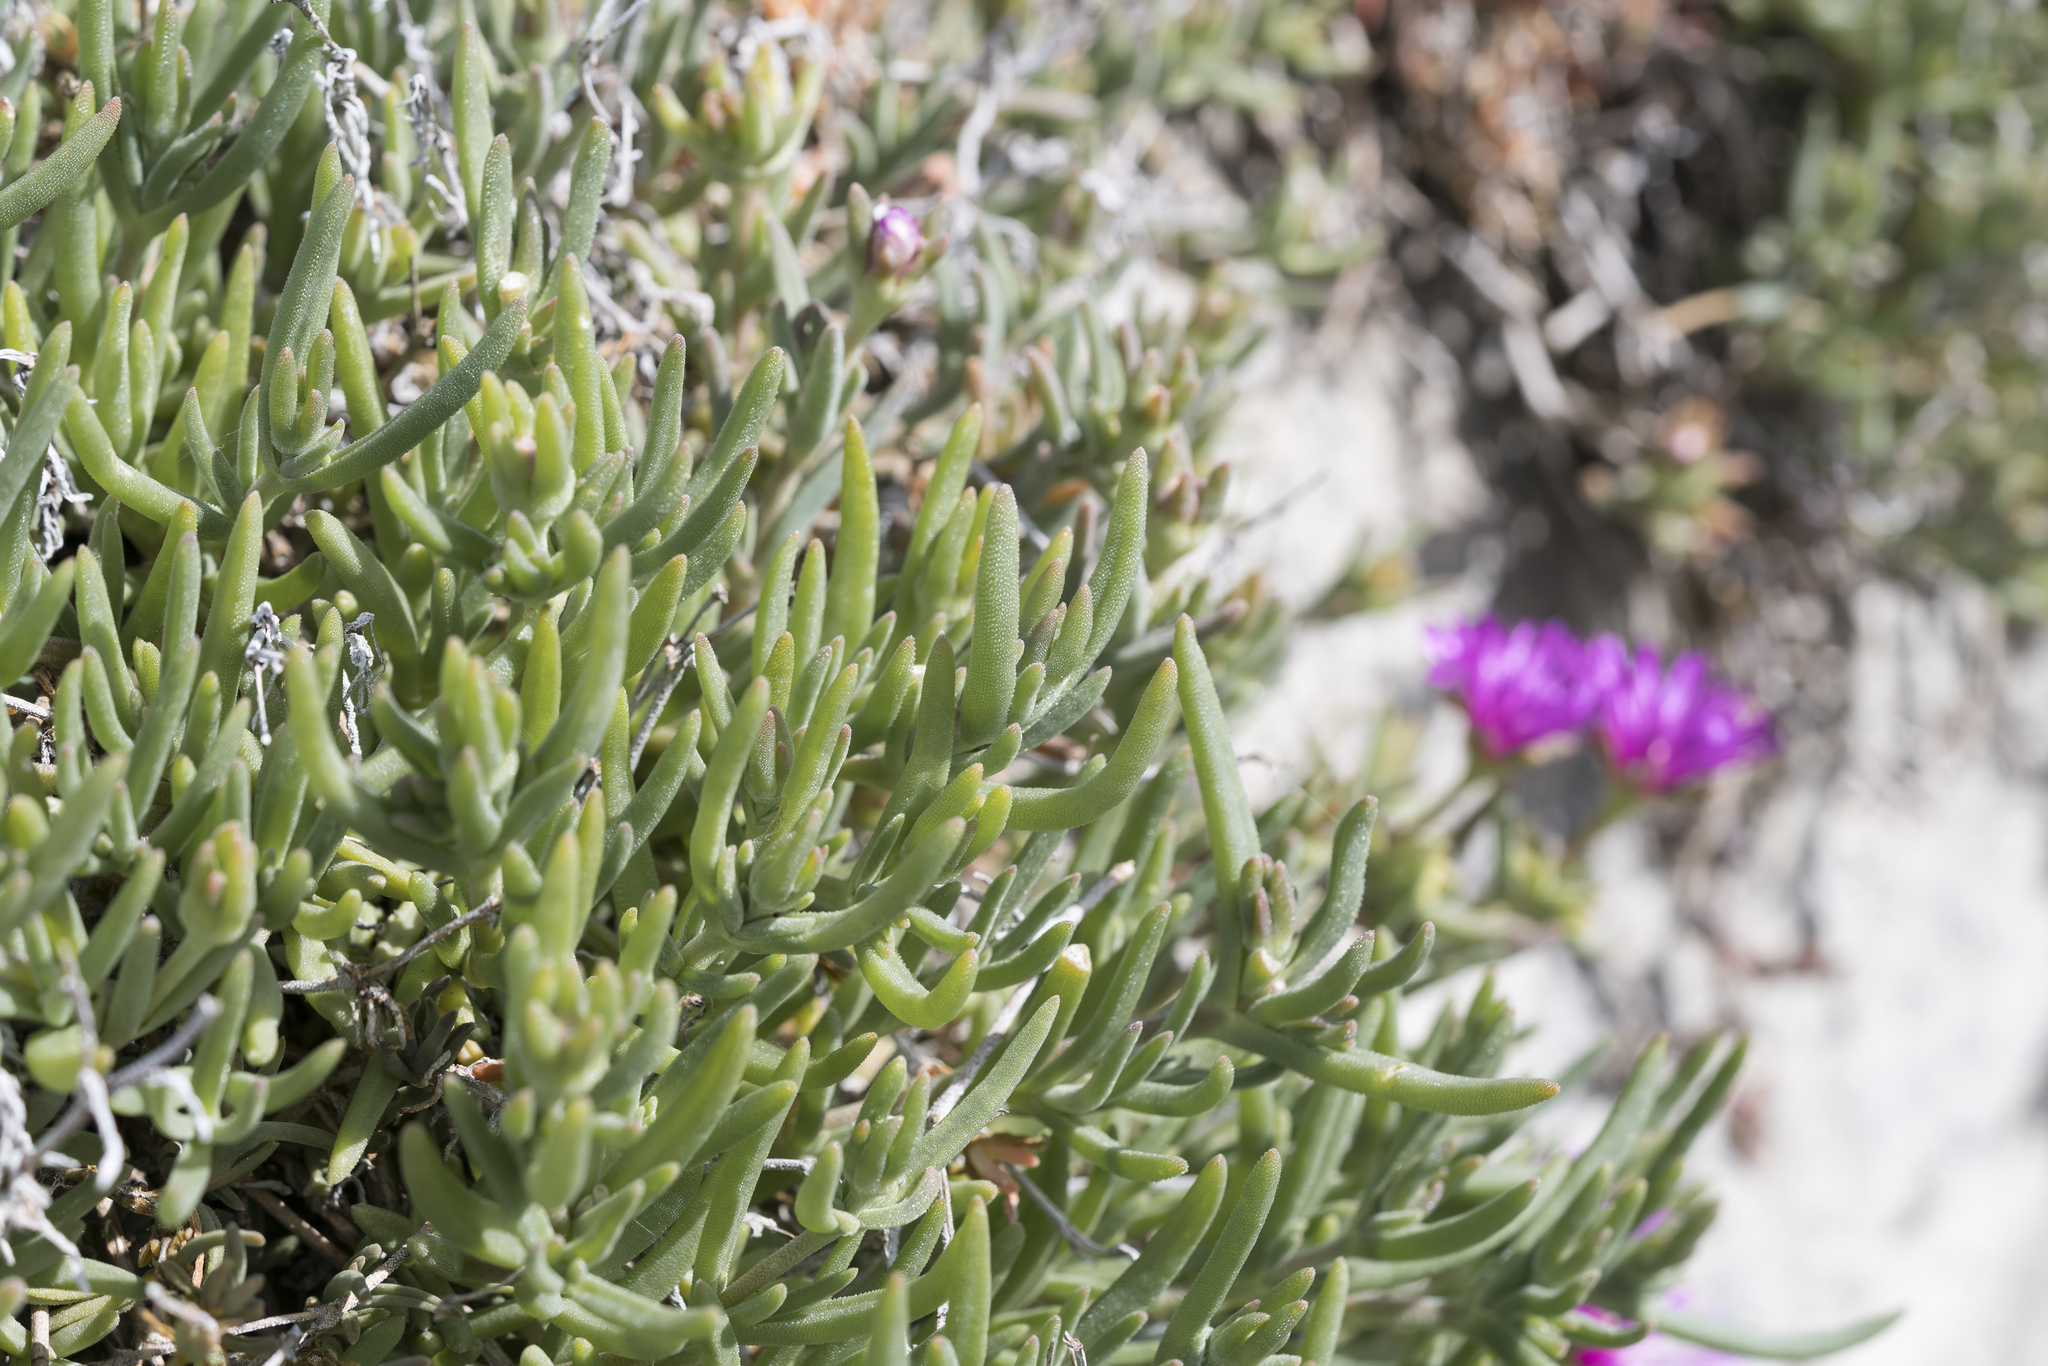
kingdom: Plantae
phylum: Tracheophyta
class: Magnoliopsida
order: Caryophyllales
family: Aizoaceae
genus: Delosperma
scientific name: Delosperma cooperi
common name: Hardy iceplant
